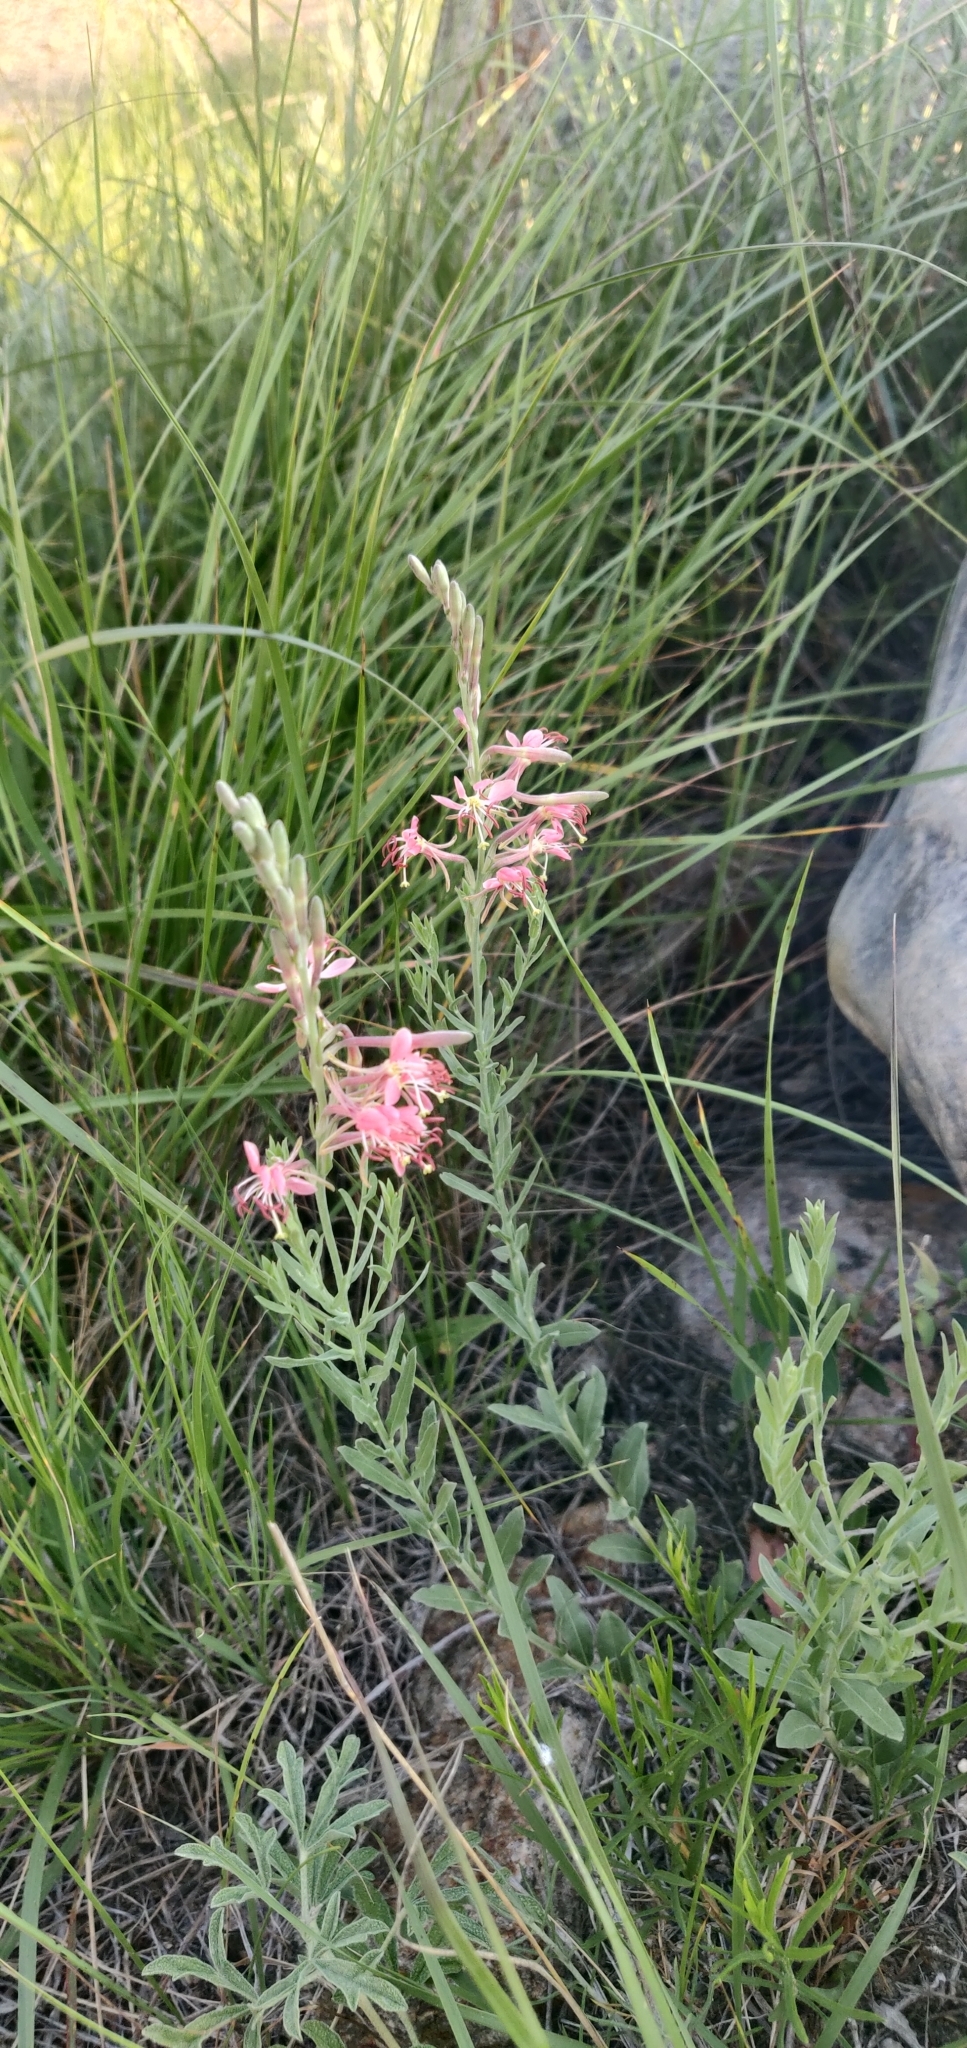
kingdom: Plantae
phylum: Tracheophyta
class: Magnoliopsida
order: Myrtales
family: Onagraceae
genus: Oenothera
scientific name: Oenothera suffrutescens
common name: Scarlet beeblossom
